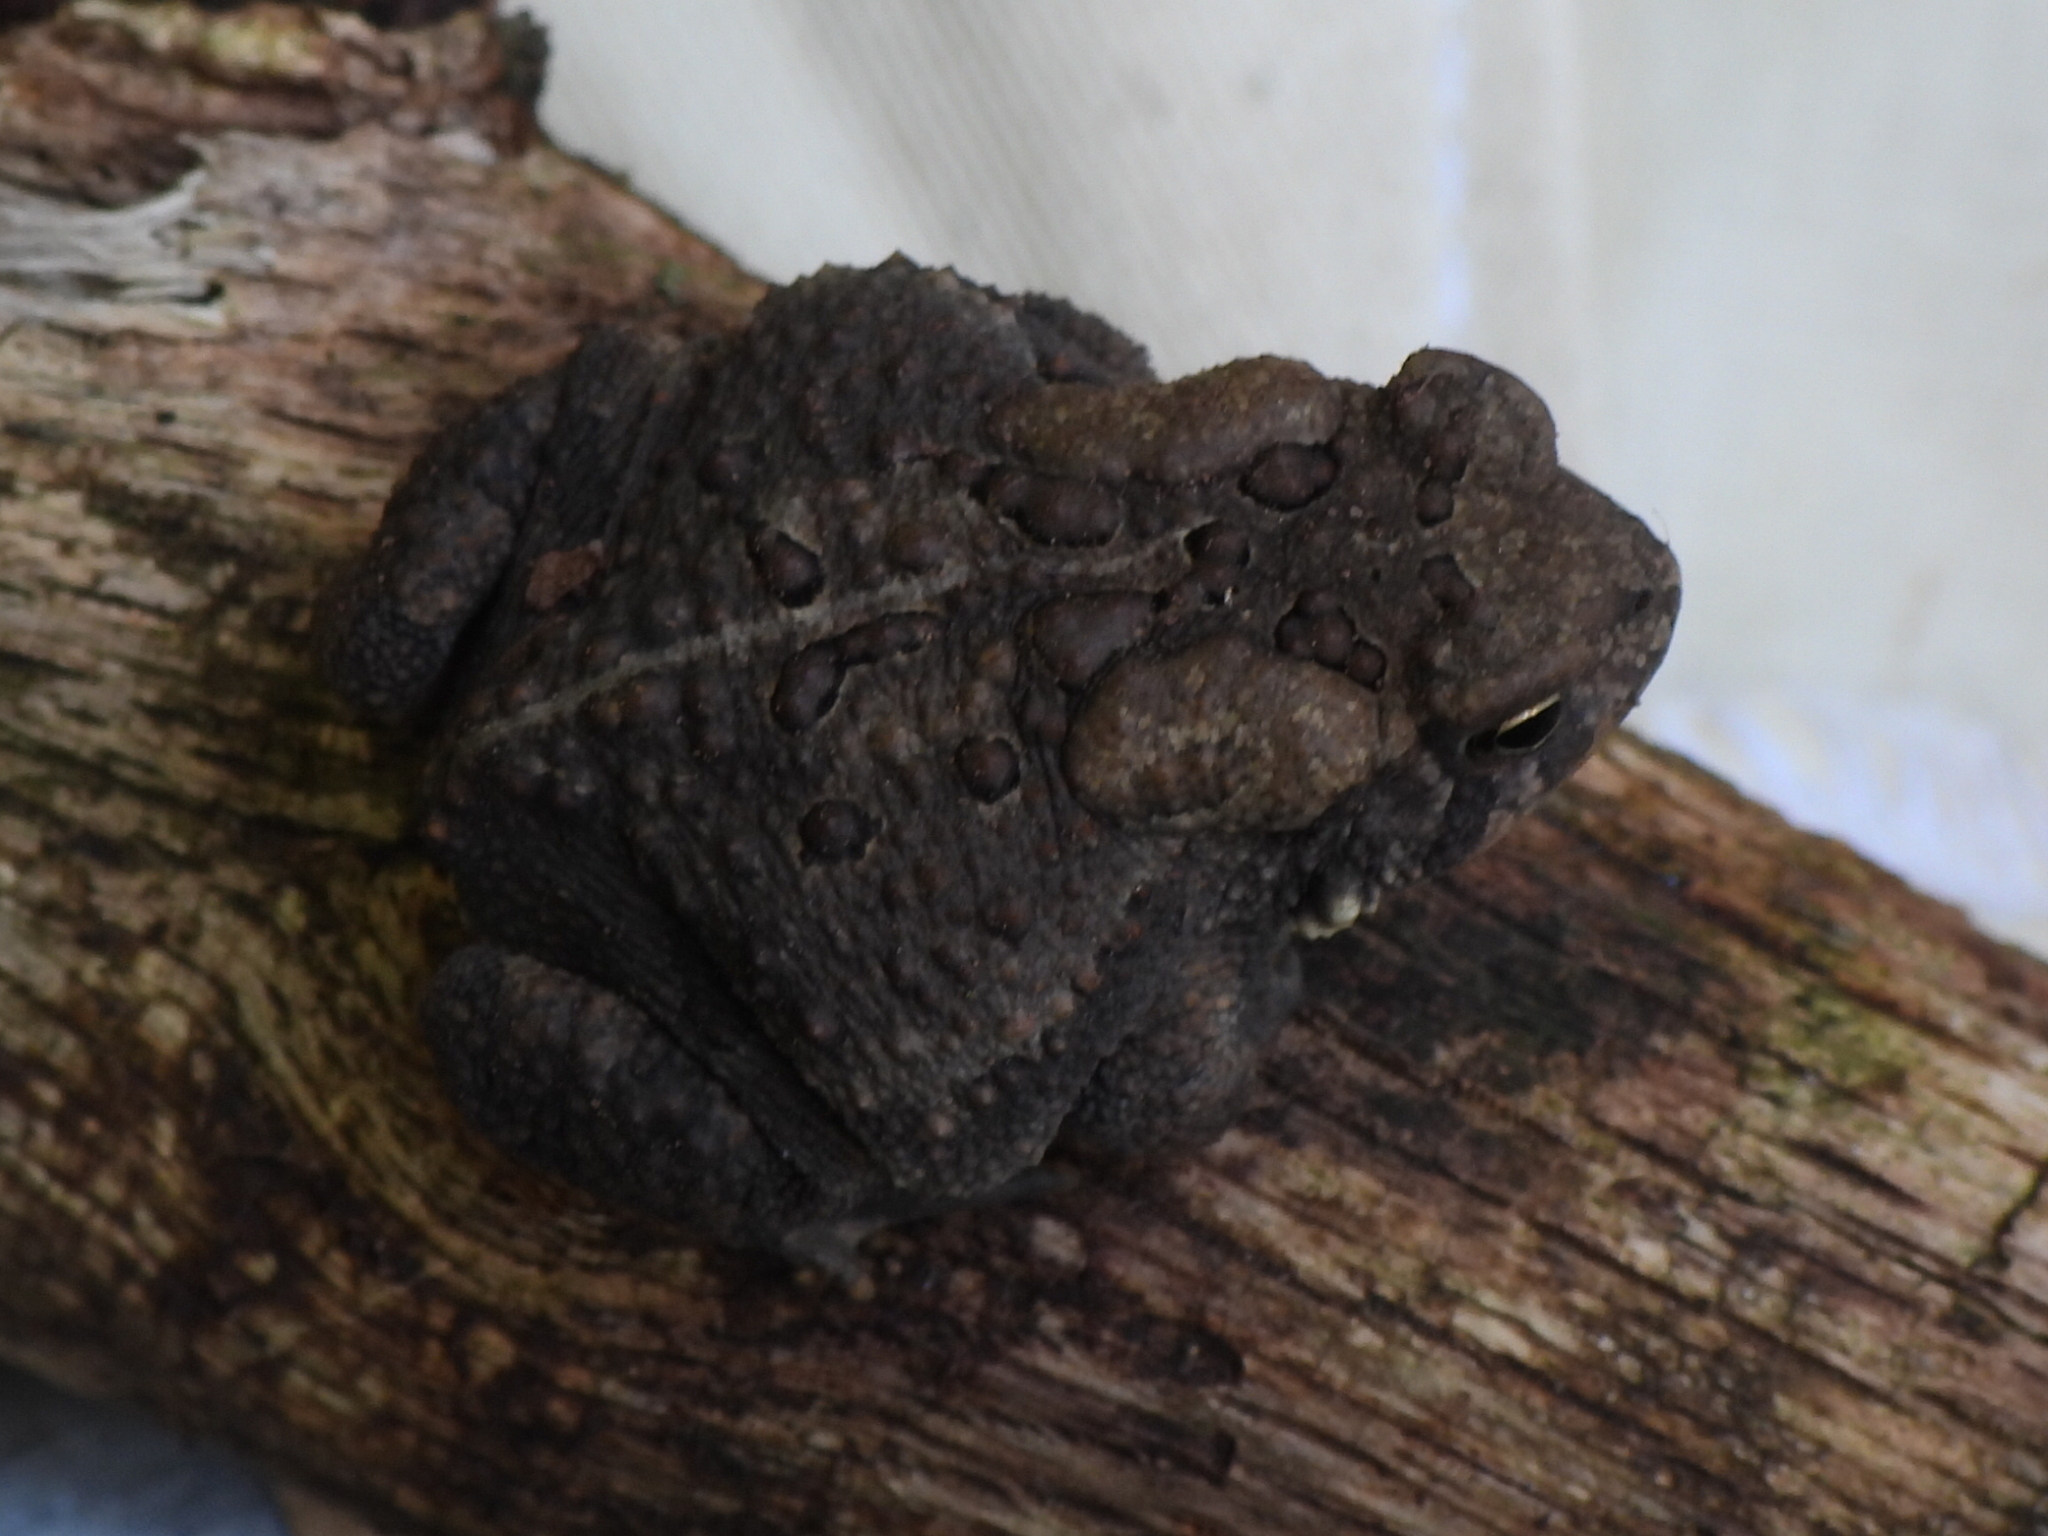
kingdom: Animalia
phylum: Chordata
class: Amphibia
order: Anura
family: Bufonidae
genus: Anaxyrus
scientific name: Anaxyrus americanus
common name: American toad
